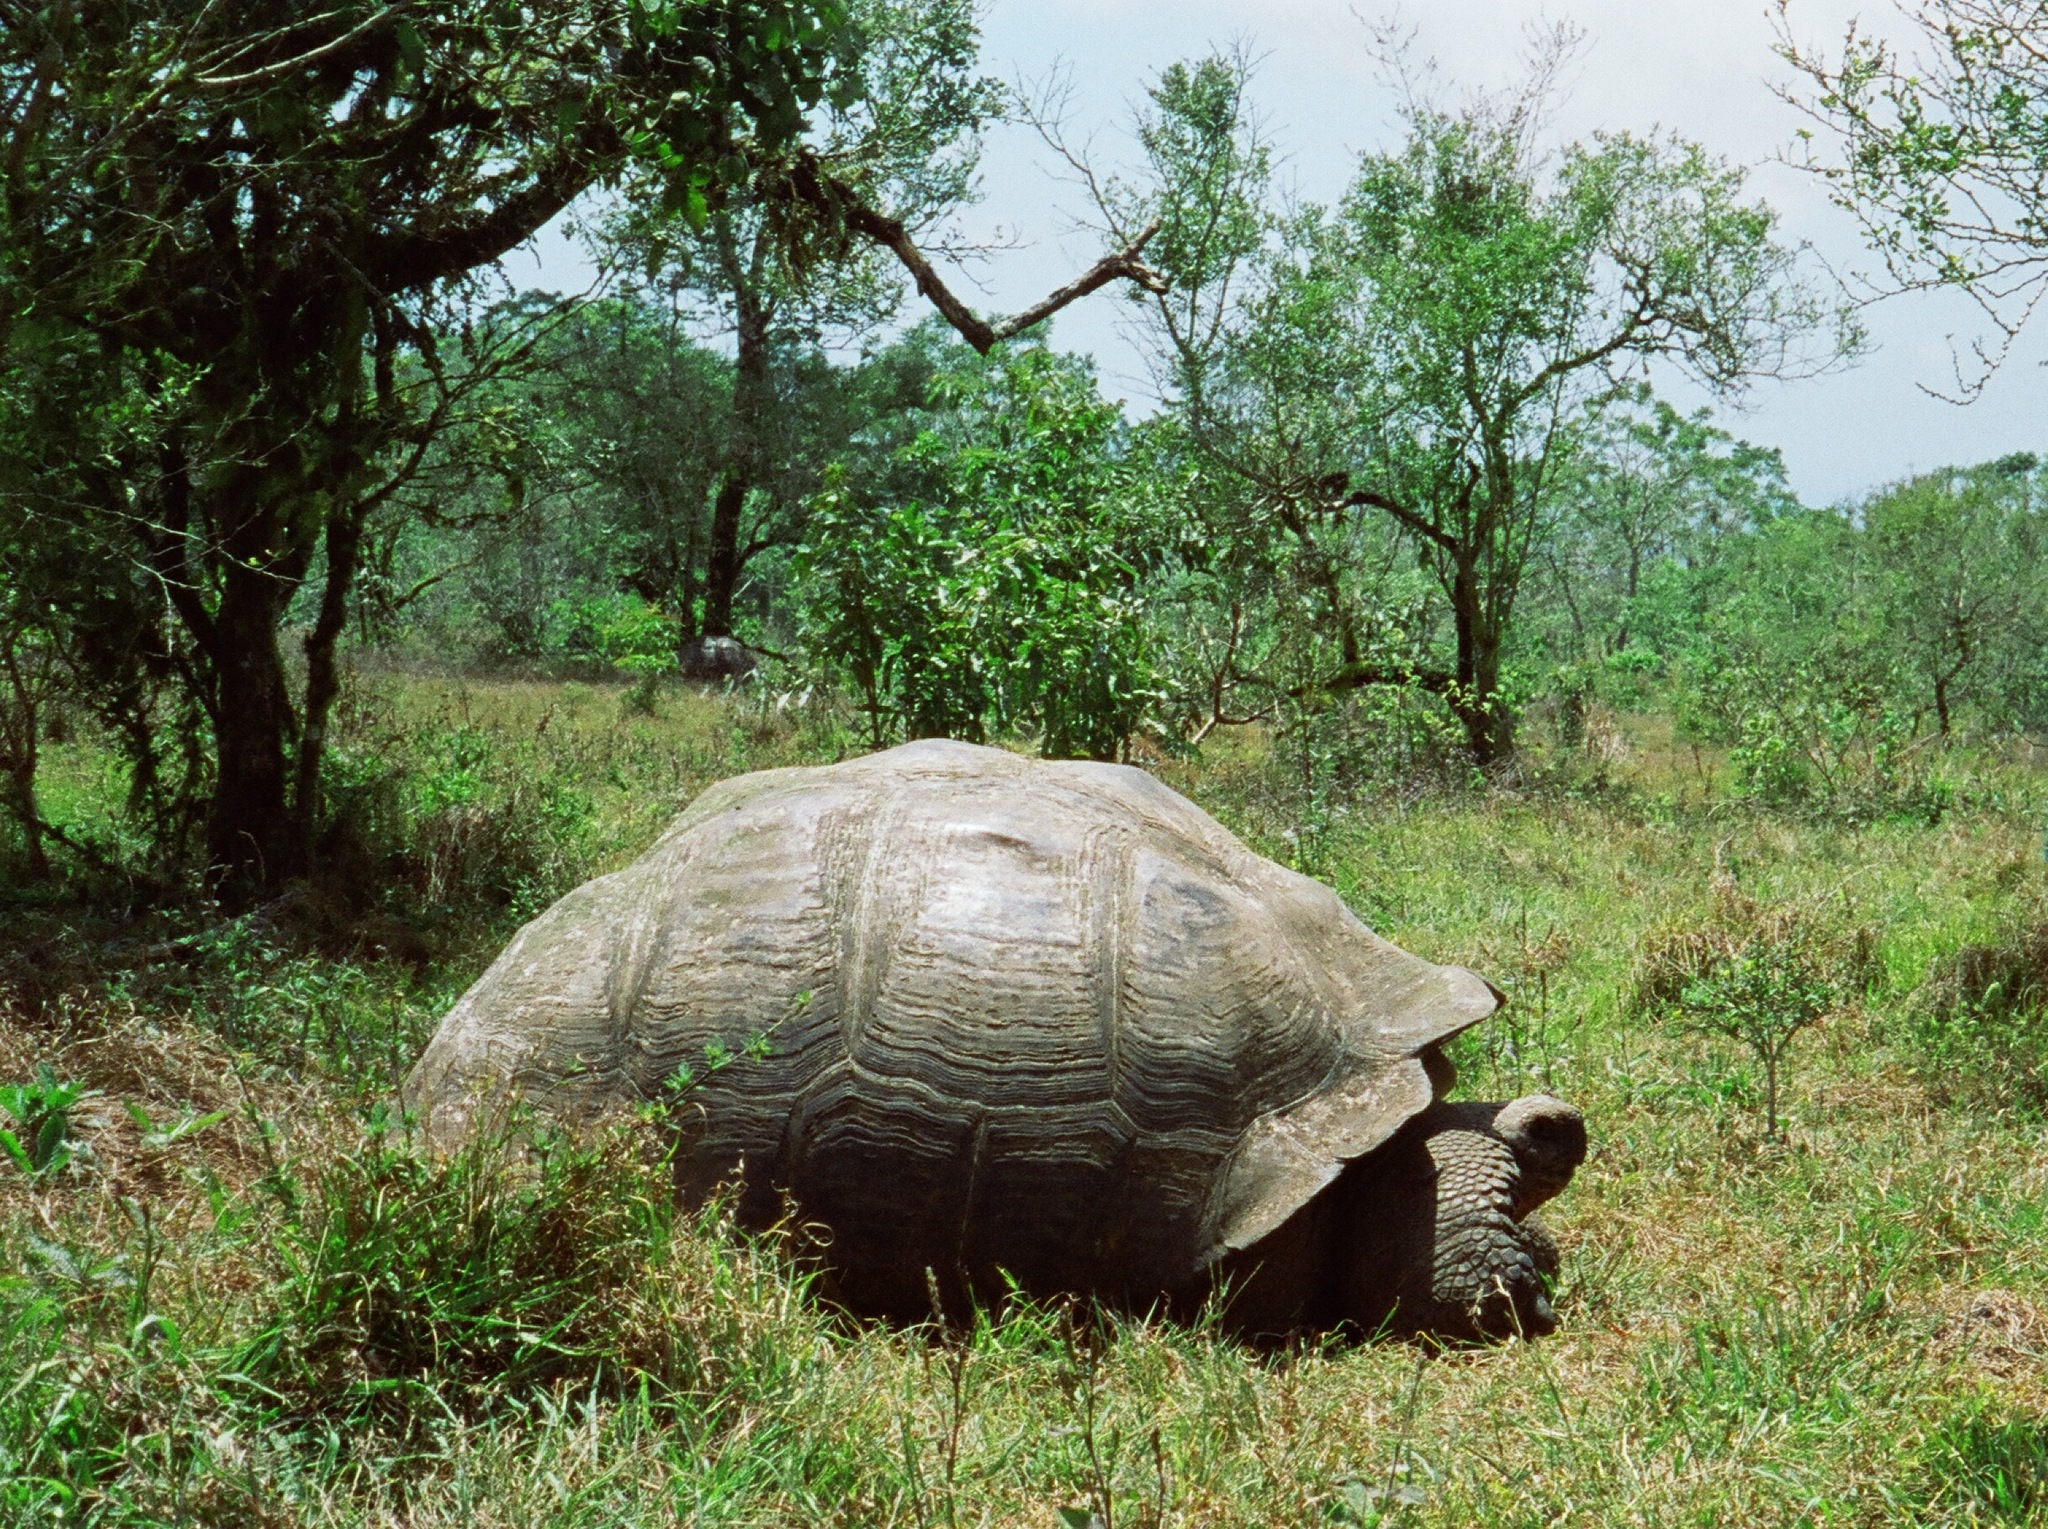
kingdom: Animalia
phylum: Chordata
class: Testudines
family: Testudinidae
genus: Chelonoidis
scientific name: Chelonoidis porteri
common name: Indefatigable island giant tortoise
